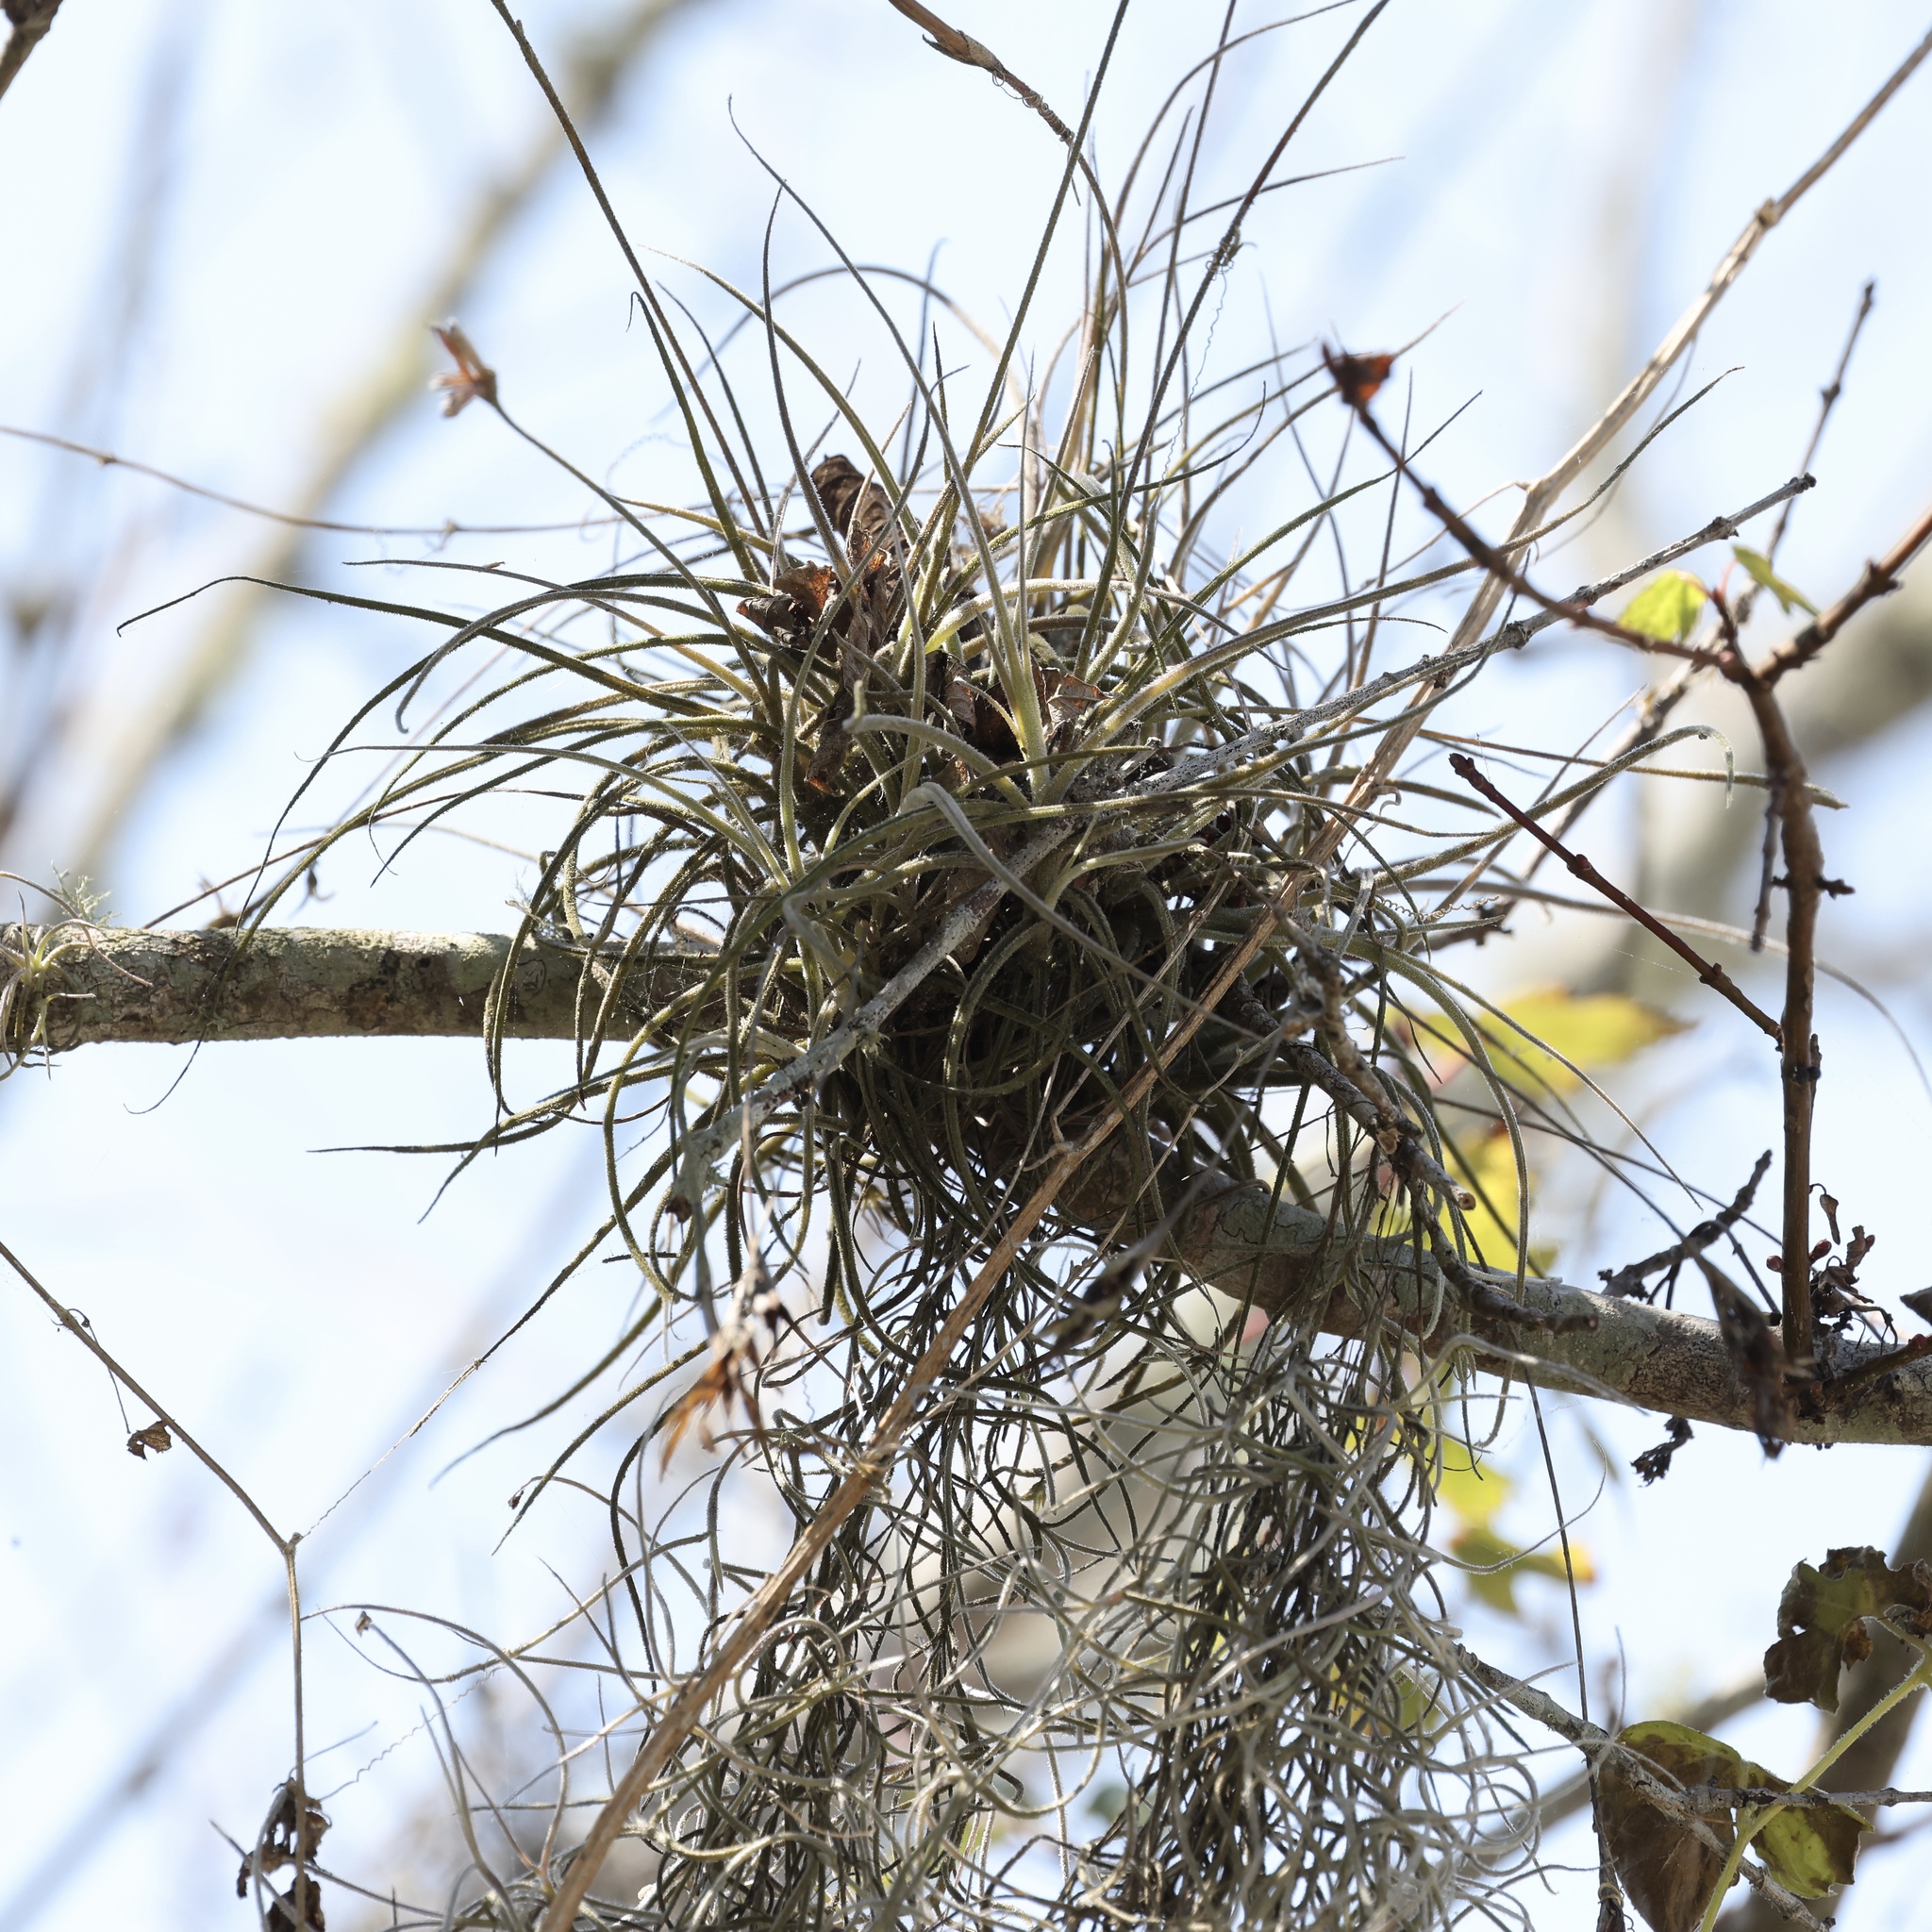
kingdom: Plantae
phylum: Tracheophyta
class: Liliopsida
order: Poales
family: Bromeliaceae
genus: Tillandsia
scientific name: Tillandsia recurvata
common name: Small ballmoss
